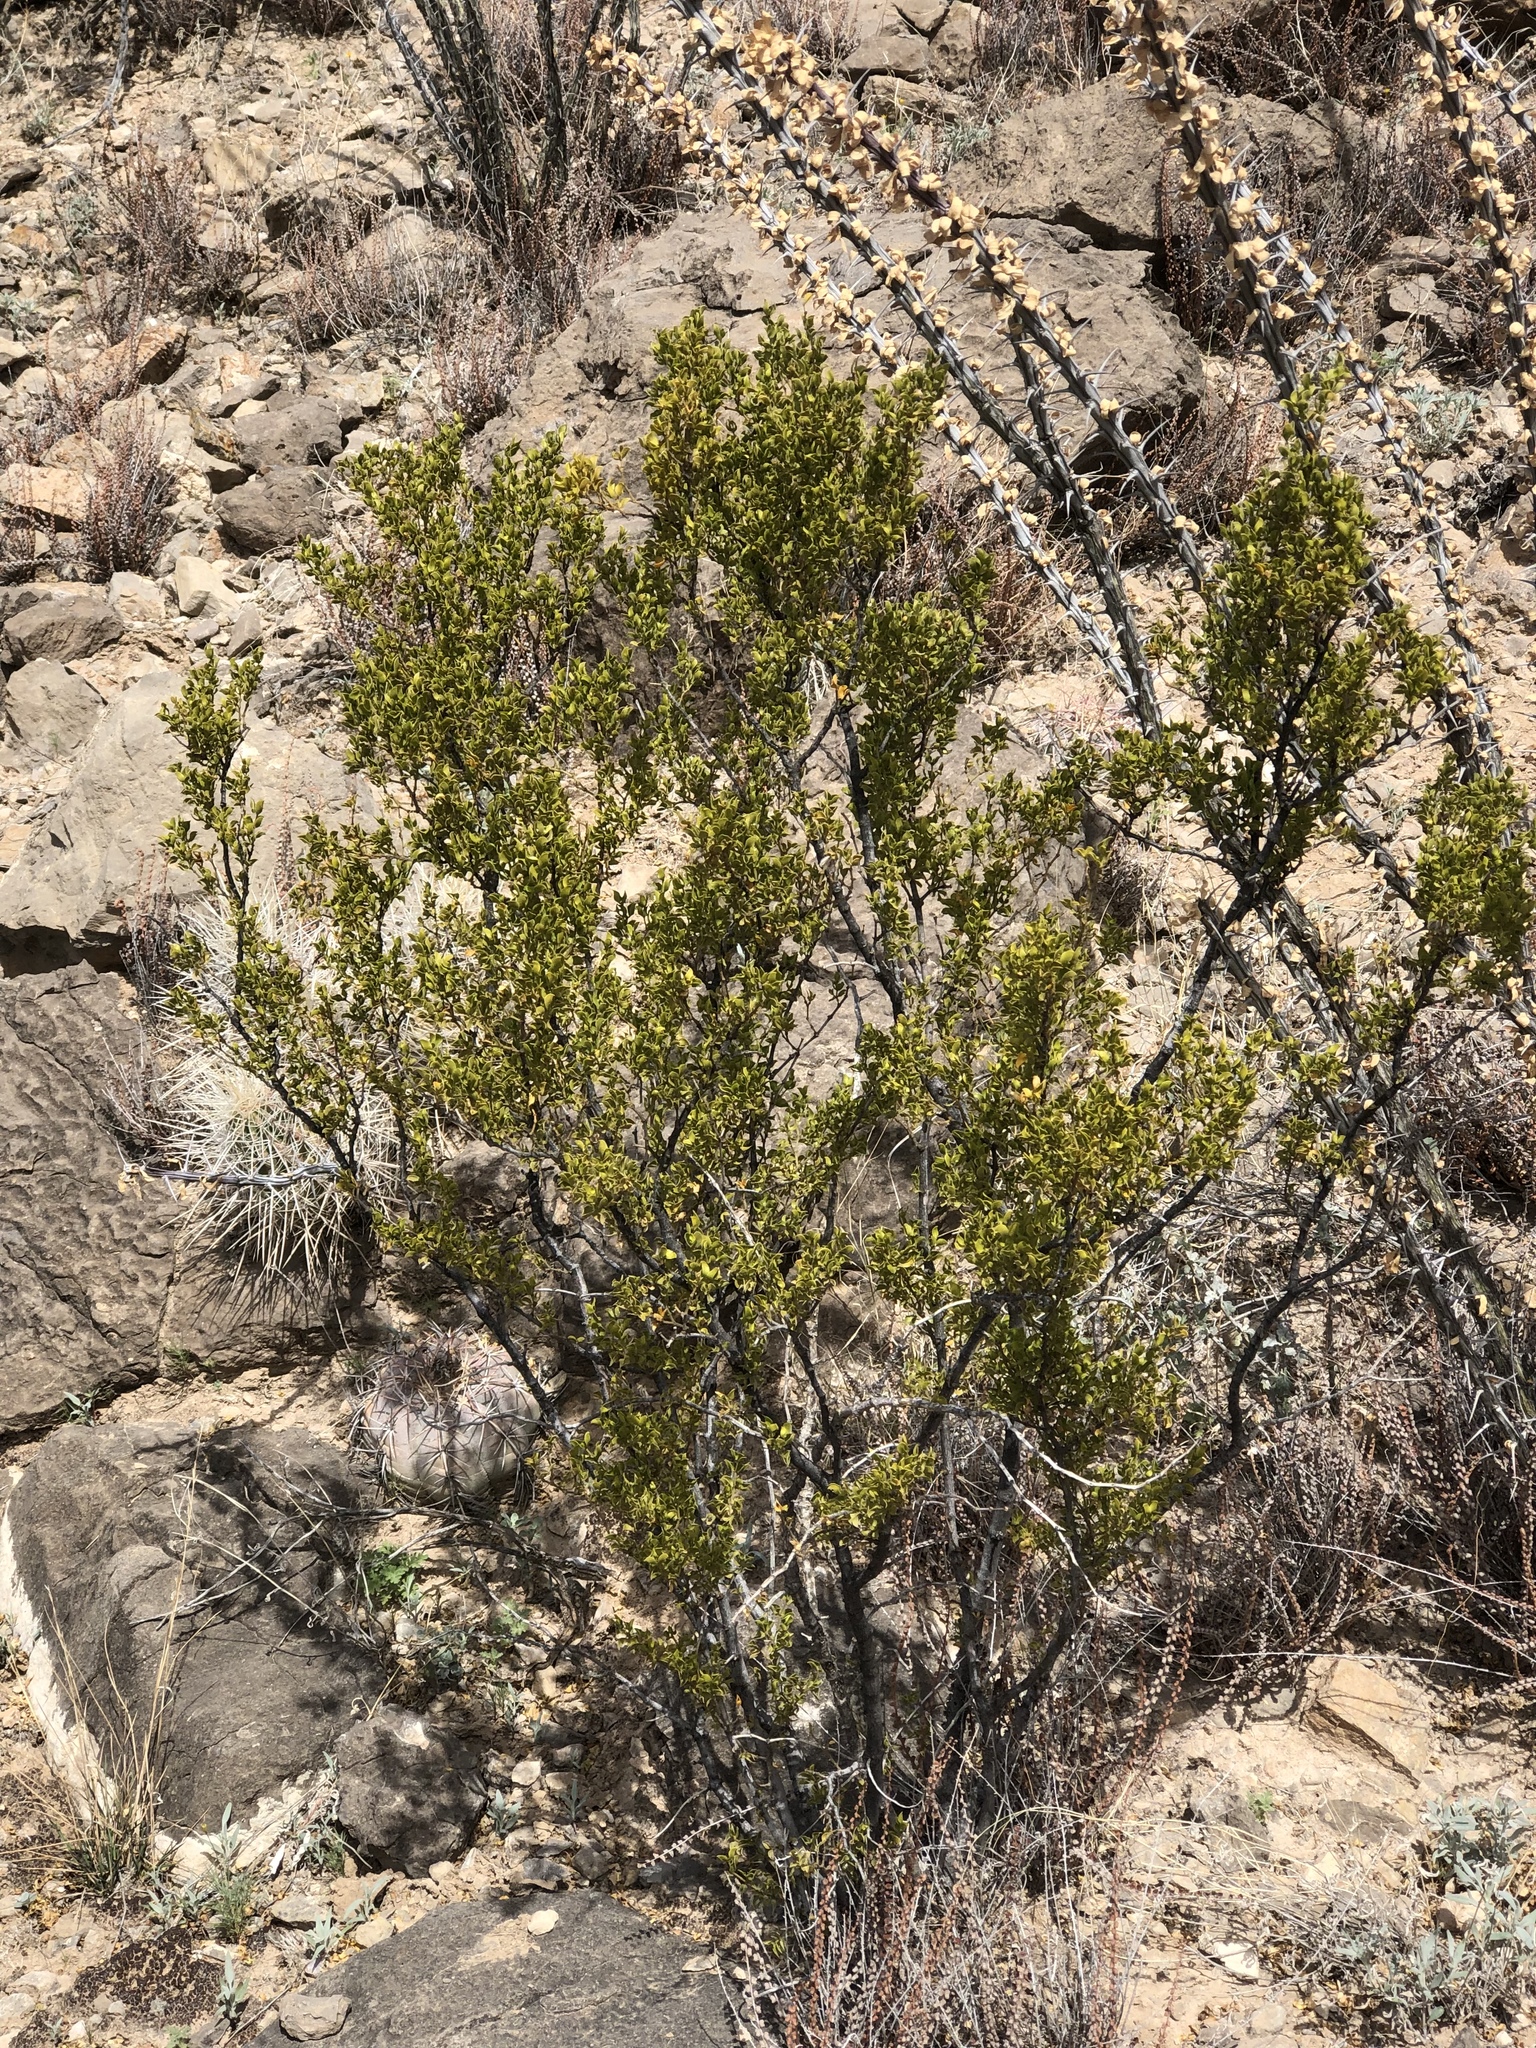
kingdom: Plantae
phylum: Tracheophyta
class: Magnoliopsida
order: Zygophyllales
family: Zygophyllaceae
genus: Larrea
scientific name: Larrea tridentata
